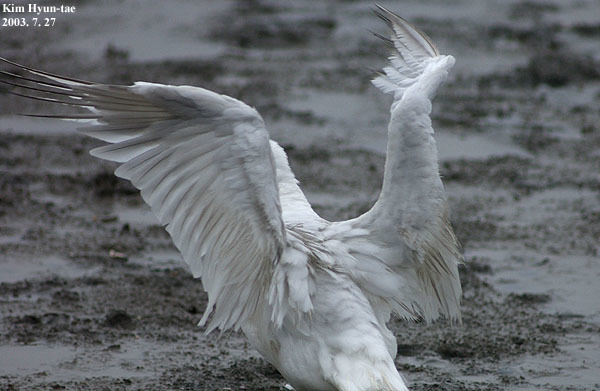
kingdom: Animalia
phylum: Chordata
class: Aves
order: Charadriiformes
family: Laridae
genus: Larus
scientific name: Larus crassirostris
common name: Black-tailed gull
